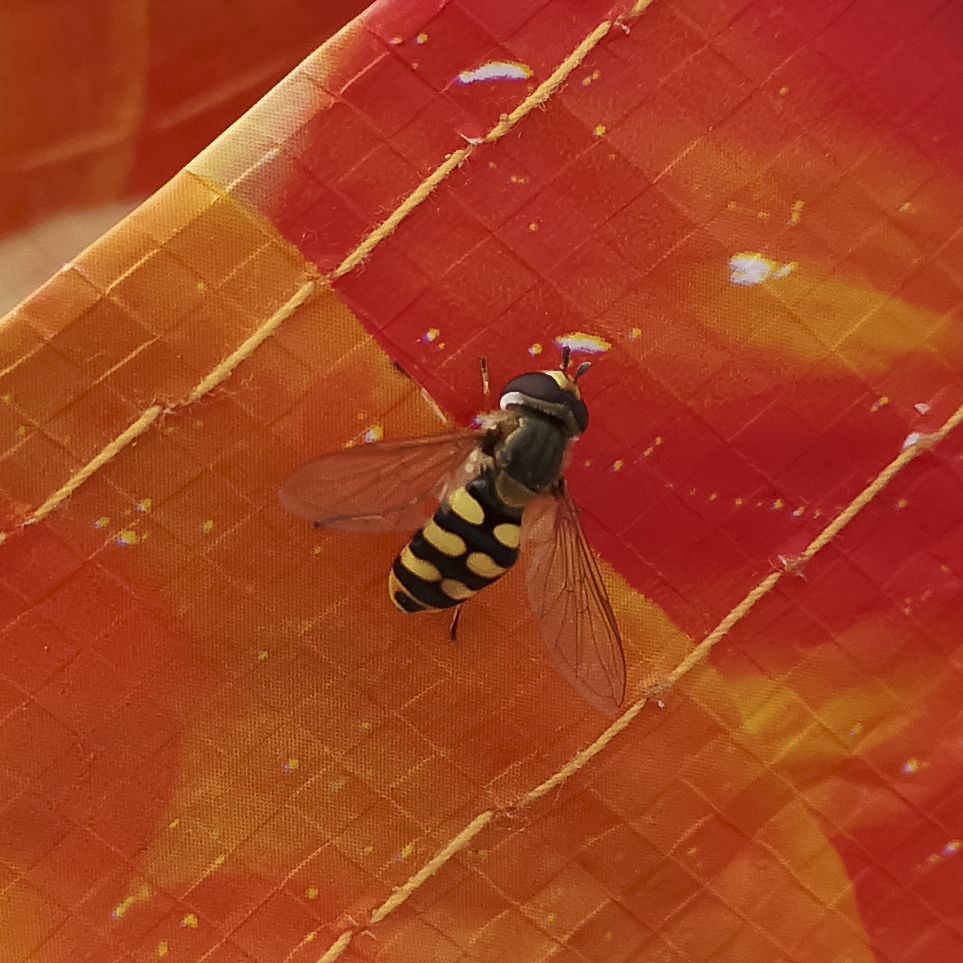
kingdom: Animalia
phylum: Arthropoda
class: Insecta
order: Diptera
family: Syrphidae
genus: Eupeodes
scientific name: Eupeodes corollae
